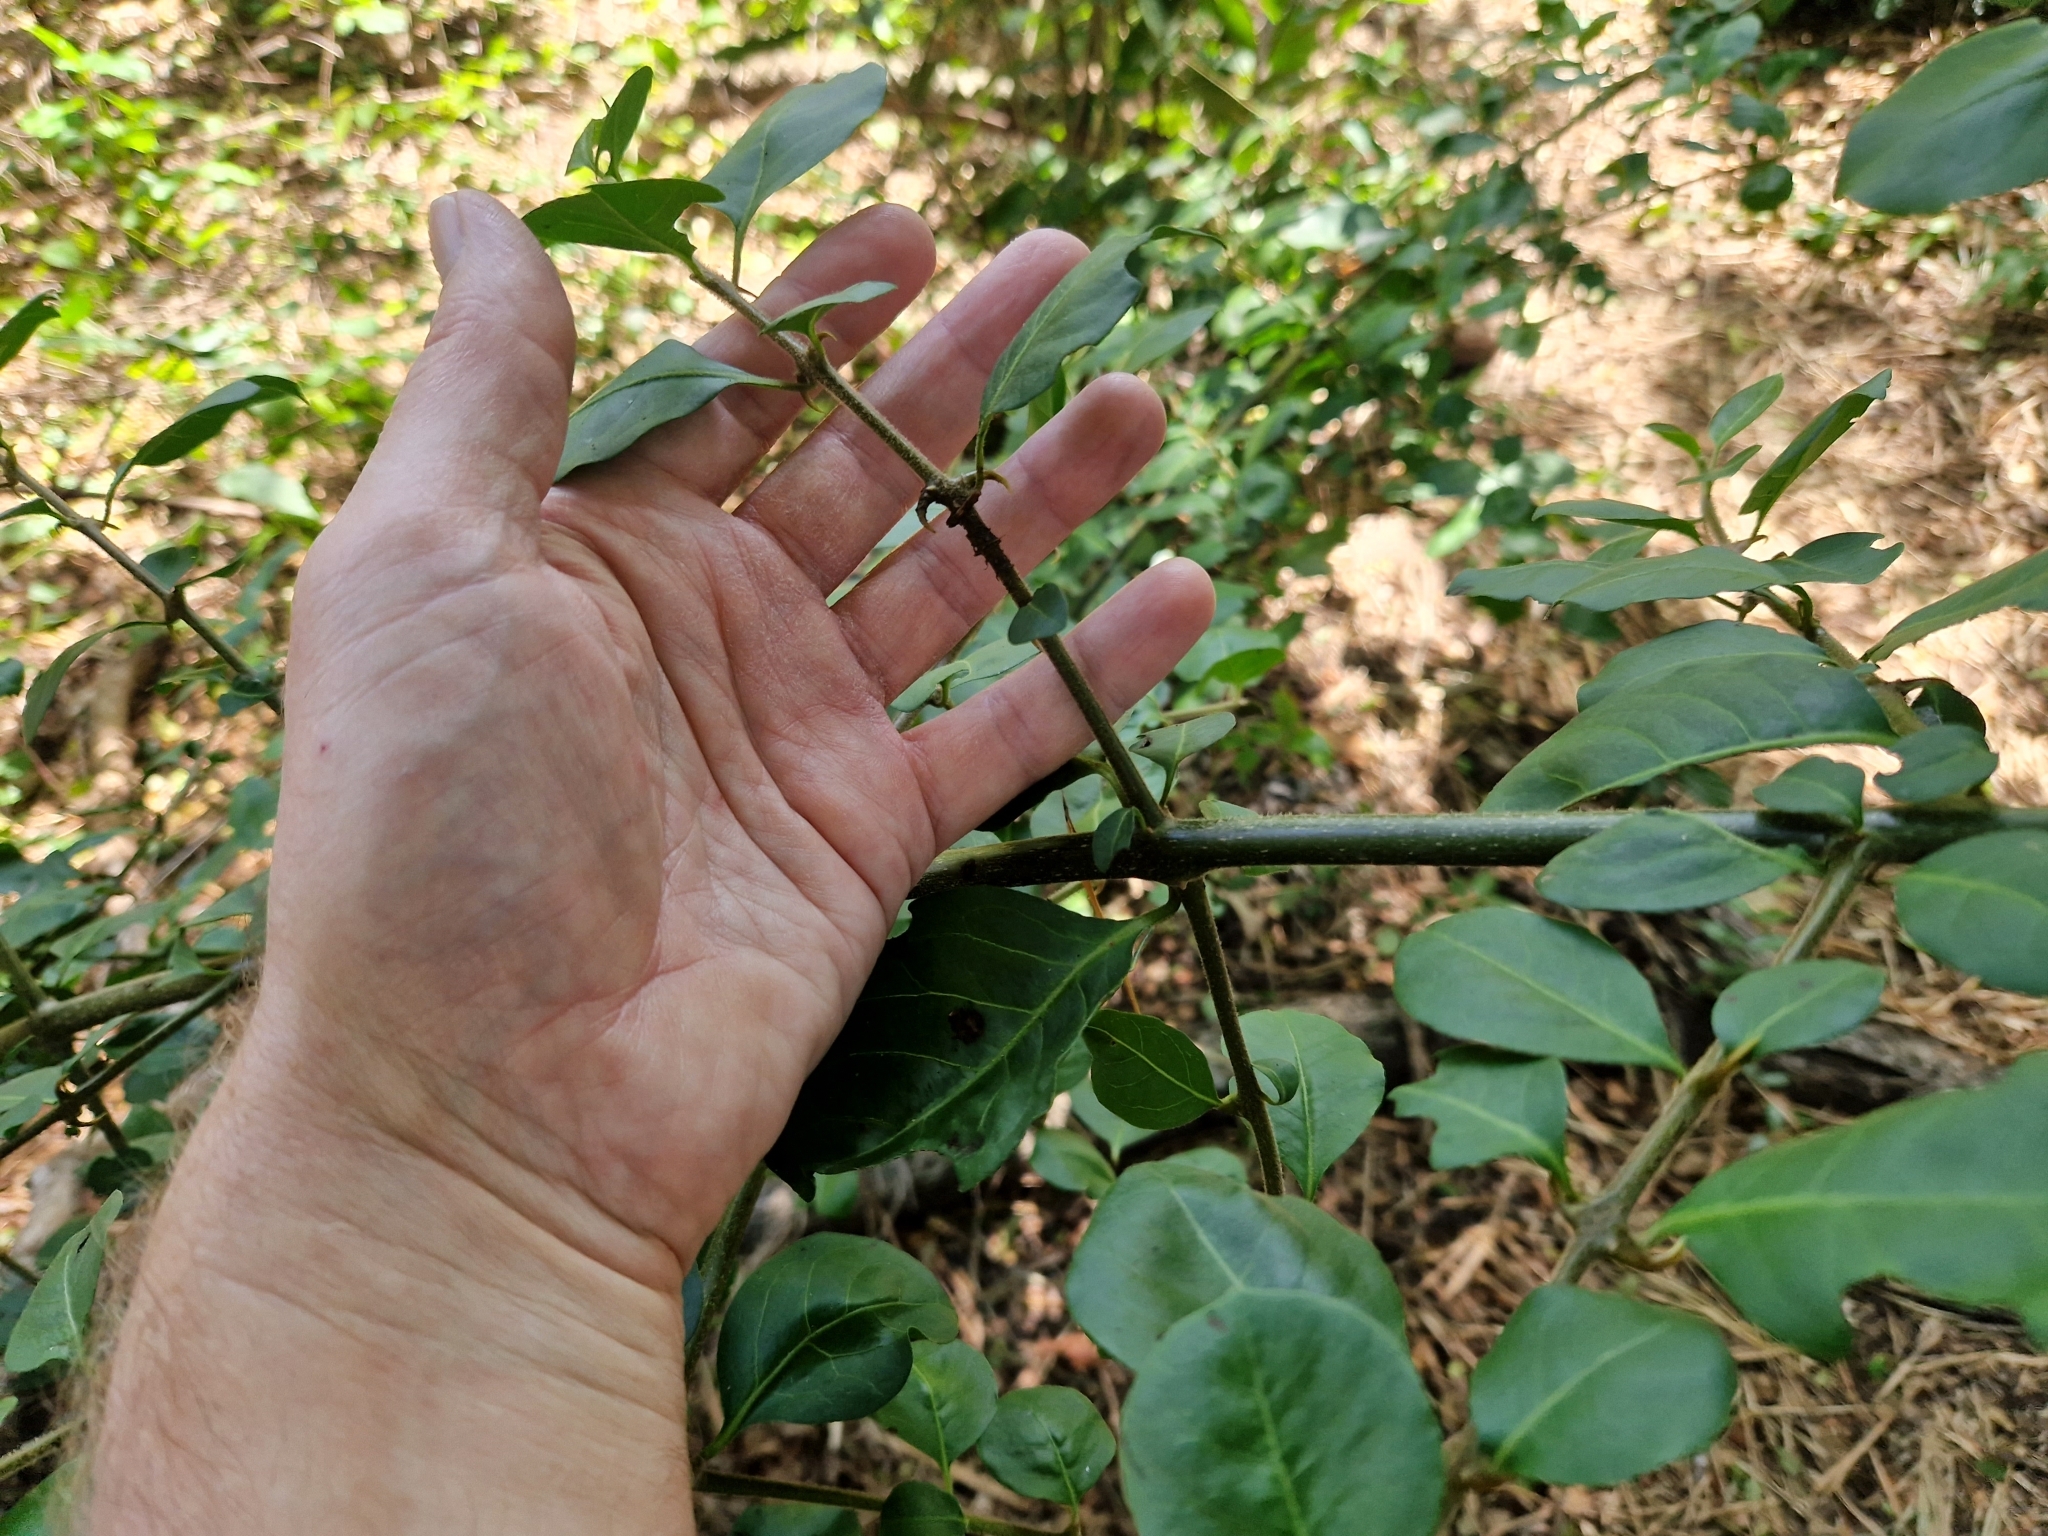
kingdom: Plantae
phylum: Tracheophyta
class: Magnoliopsida
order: Caryophyllales
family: Nyctaginaceae
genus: Pisonia
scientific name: Pisonia aculeata
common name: Cockspur vine
